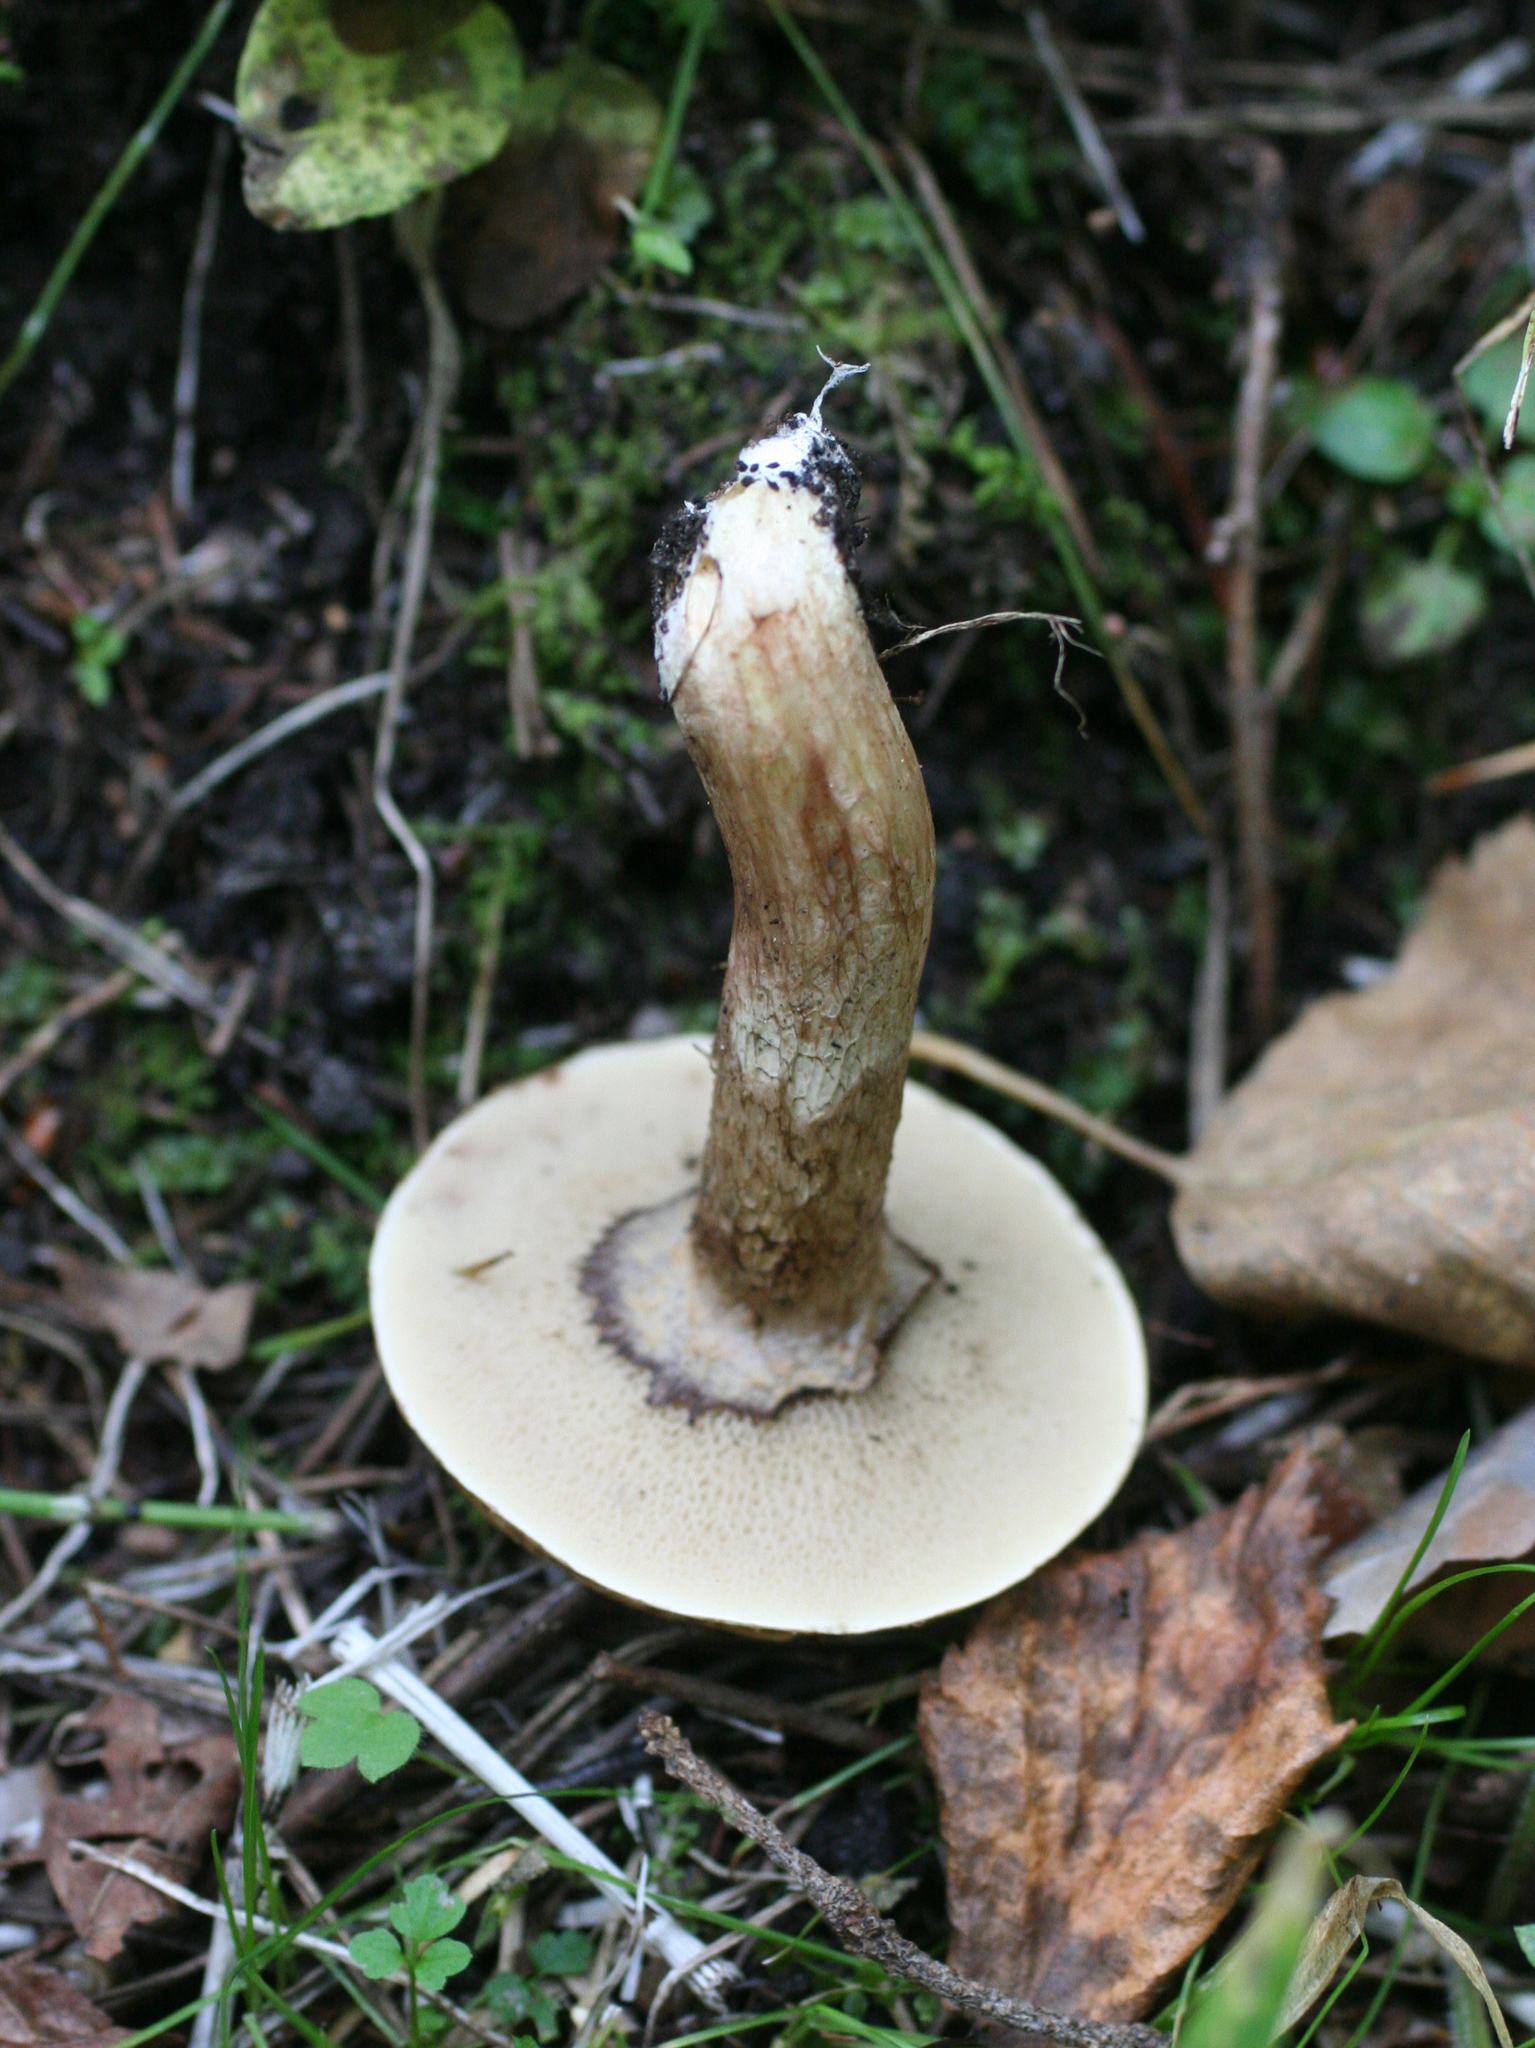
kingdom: Fungi
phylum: Basidiomycota
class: Agaricomycetes
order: Boletales
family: Suillaceae
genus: Suillus
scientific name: Suillus viscidus
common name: Sticky bolete
